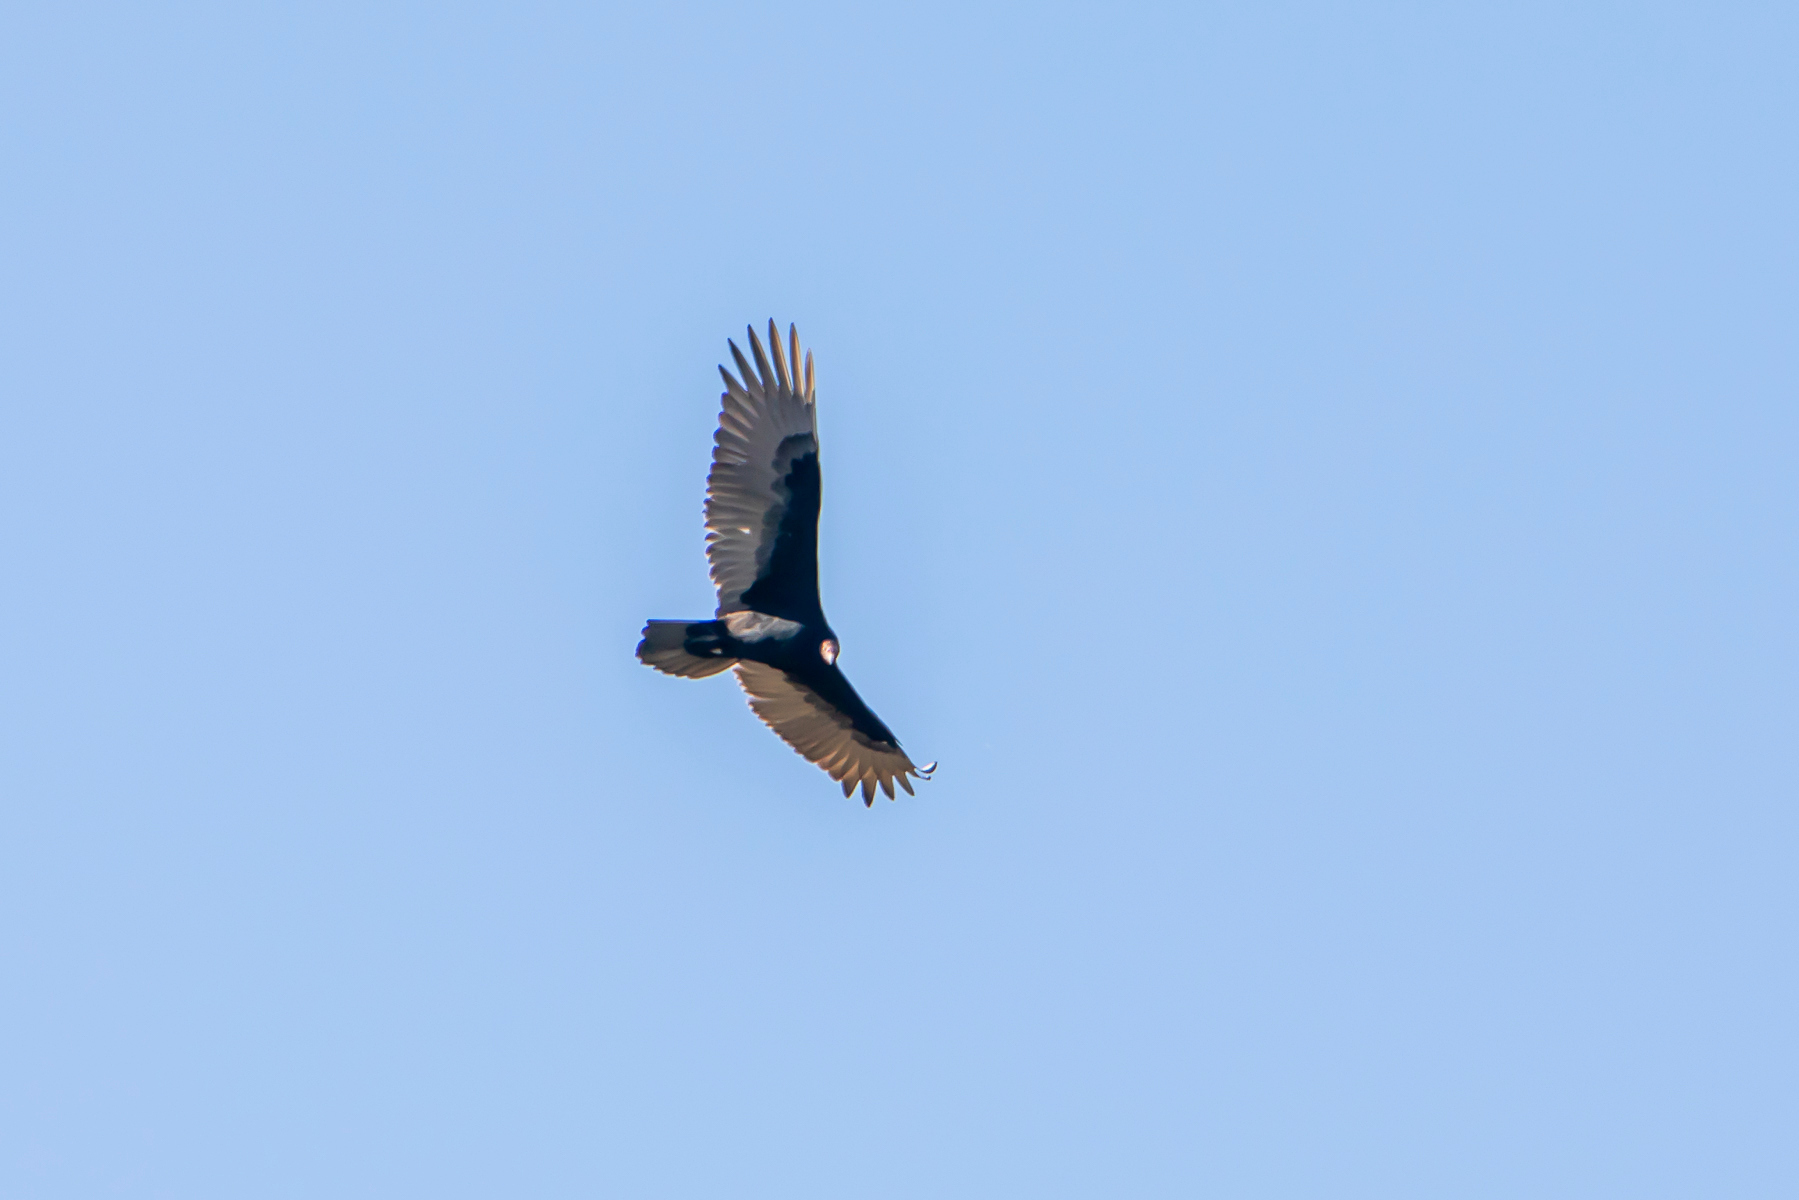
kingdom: Animalia
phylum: Chordata
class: Aves
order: Accipitriformes
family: Cathartidae
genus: Cathartes
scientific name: Cathartes aura
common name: Turkey vulture
